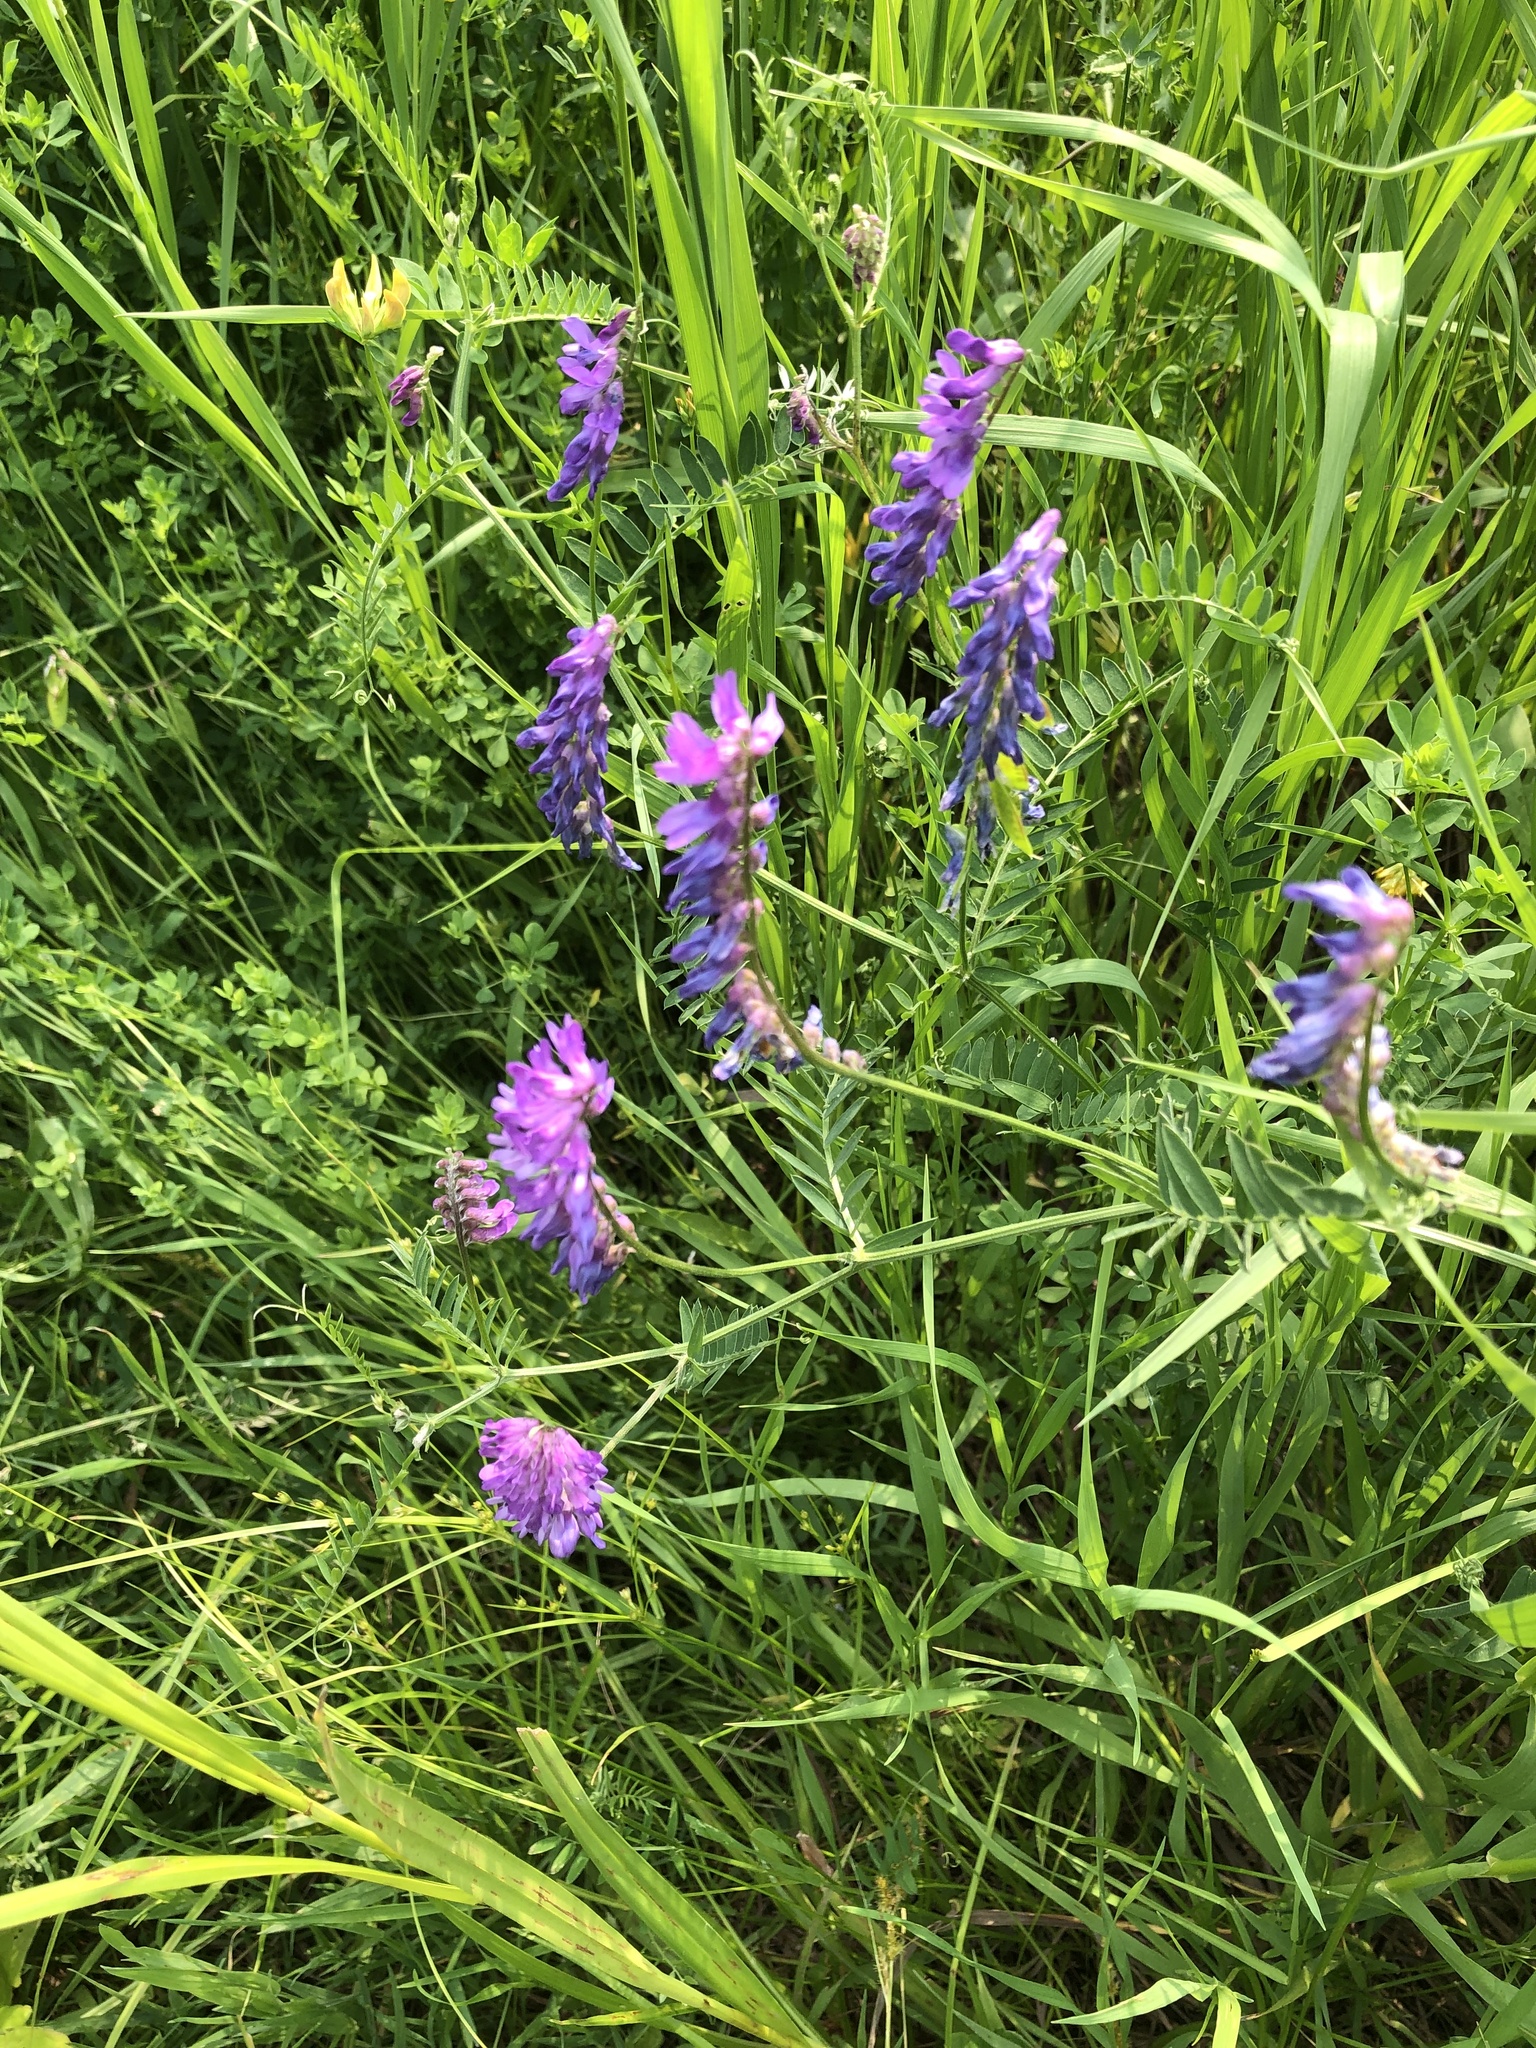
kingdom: Plantae
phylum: Tracheophyta
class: Magnoliopsida
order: Fabales
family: Fabaceae
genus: Vicia
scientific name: Vicia cracca
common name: Bird vetch
